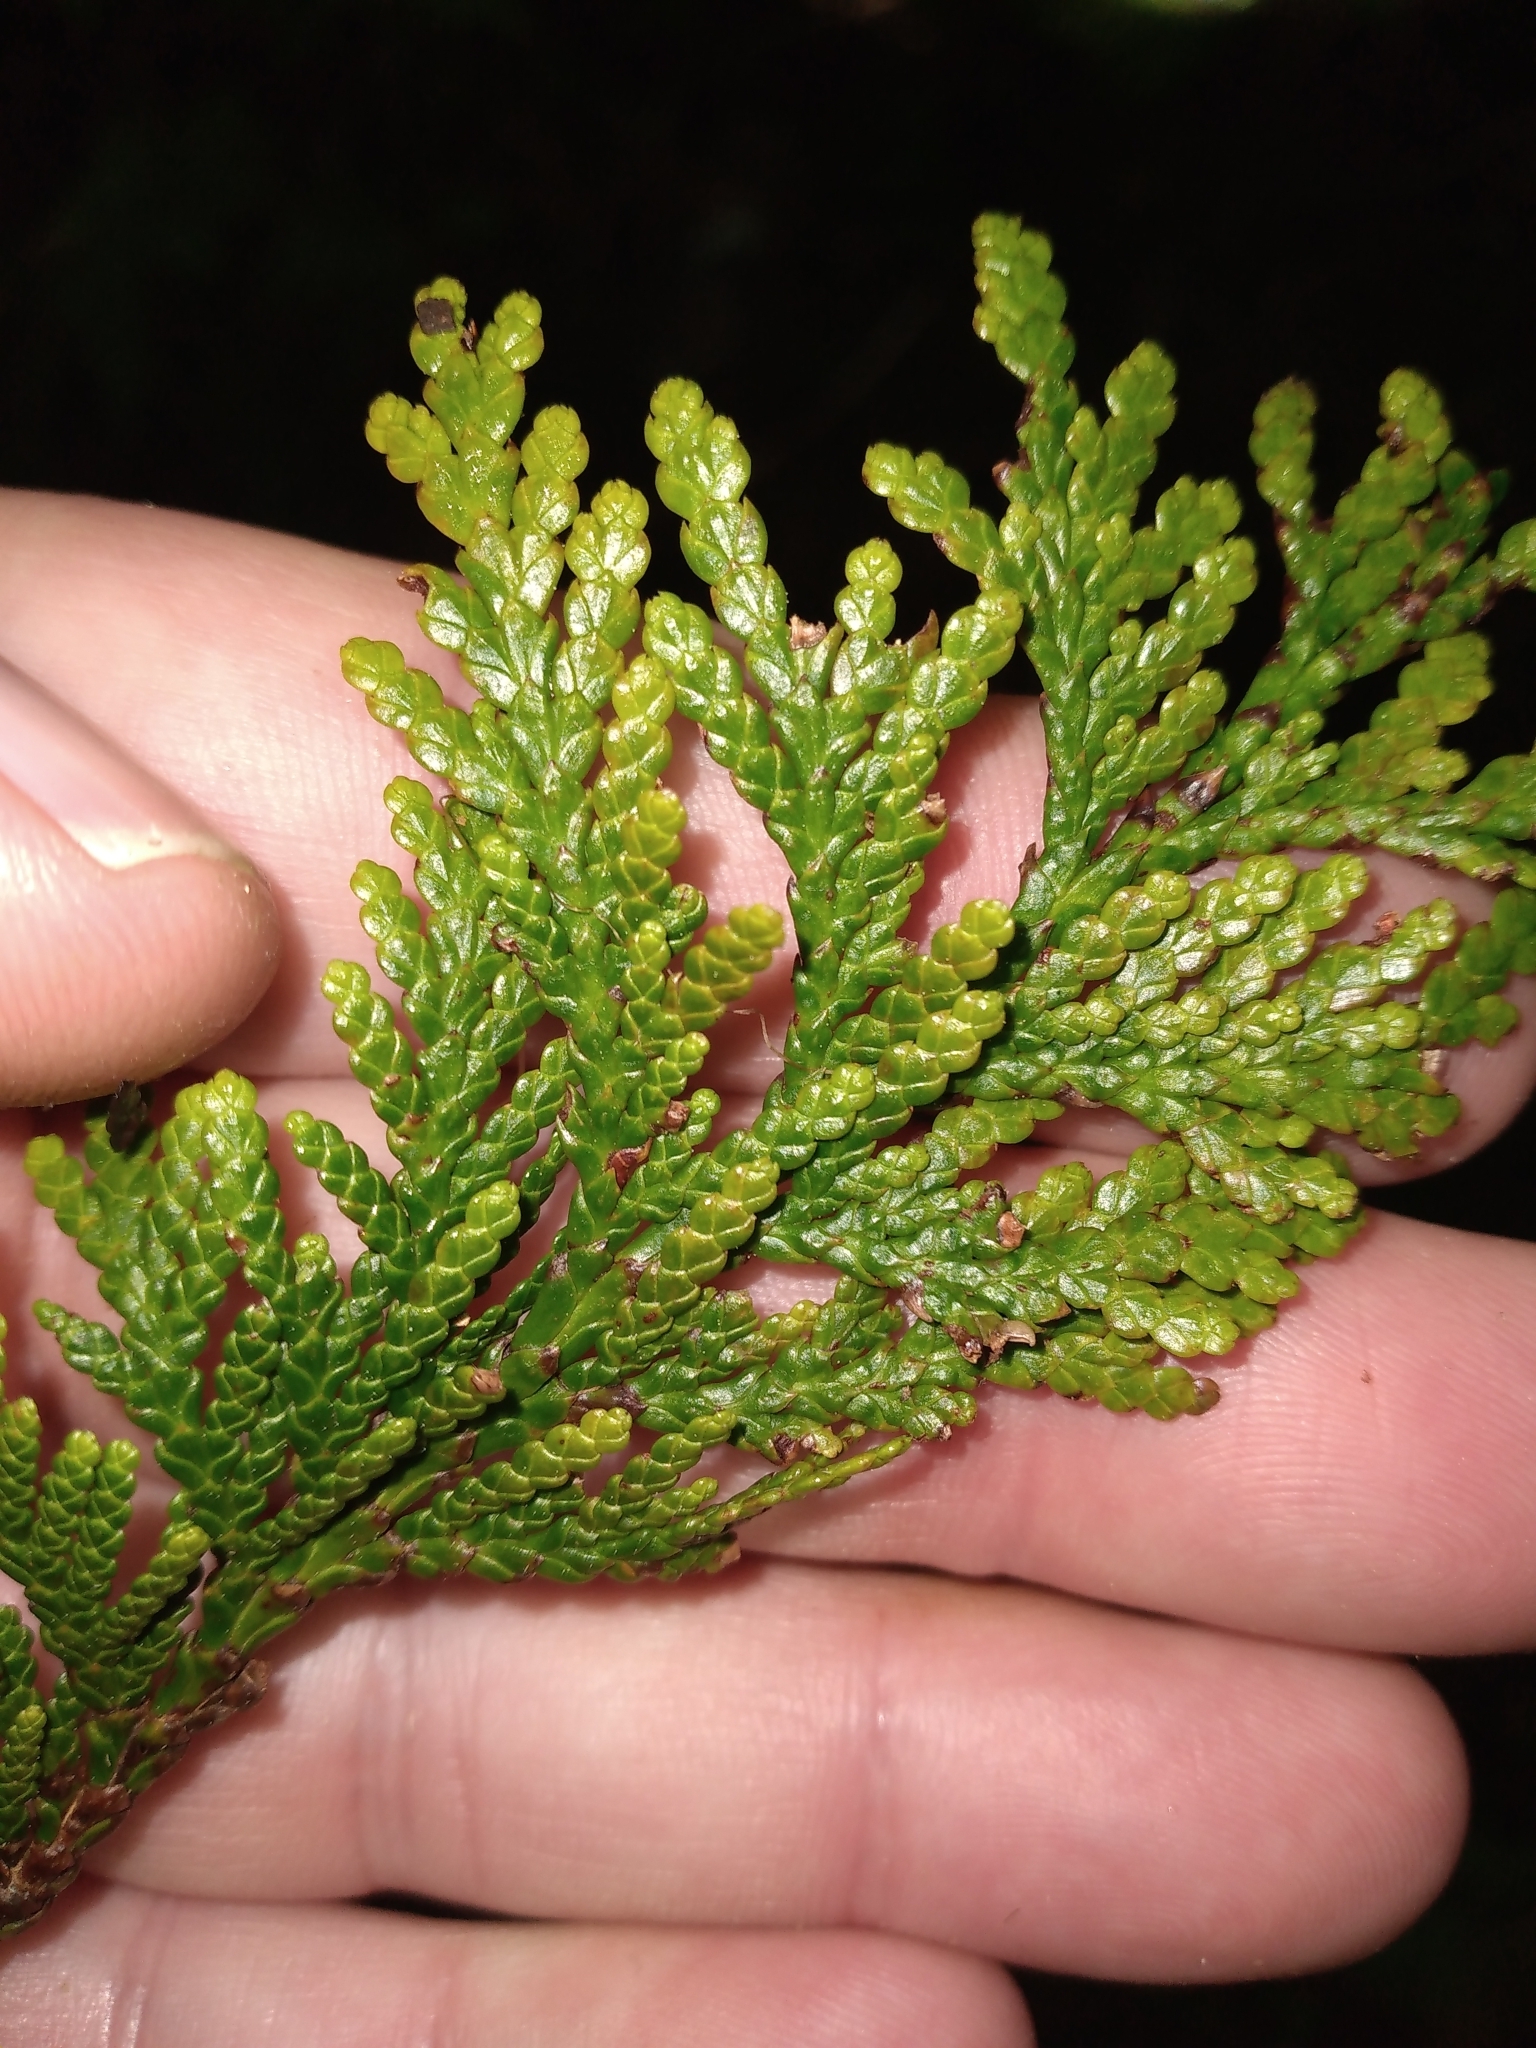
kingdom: Plantae
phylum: Tracheophyta
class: Polypodiopsida
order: Psilotales
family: Psilotaceae
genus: Tmesipteris
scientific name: Tmesipteris elongata
